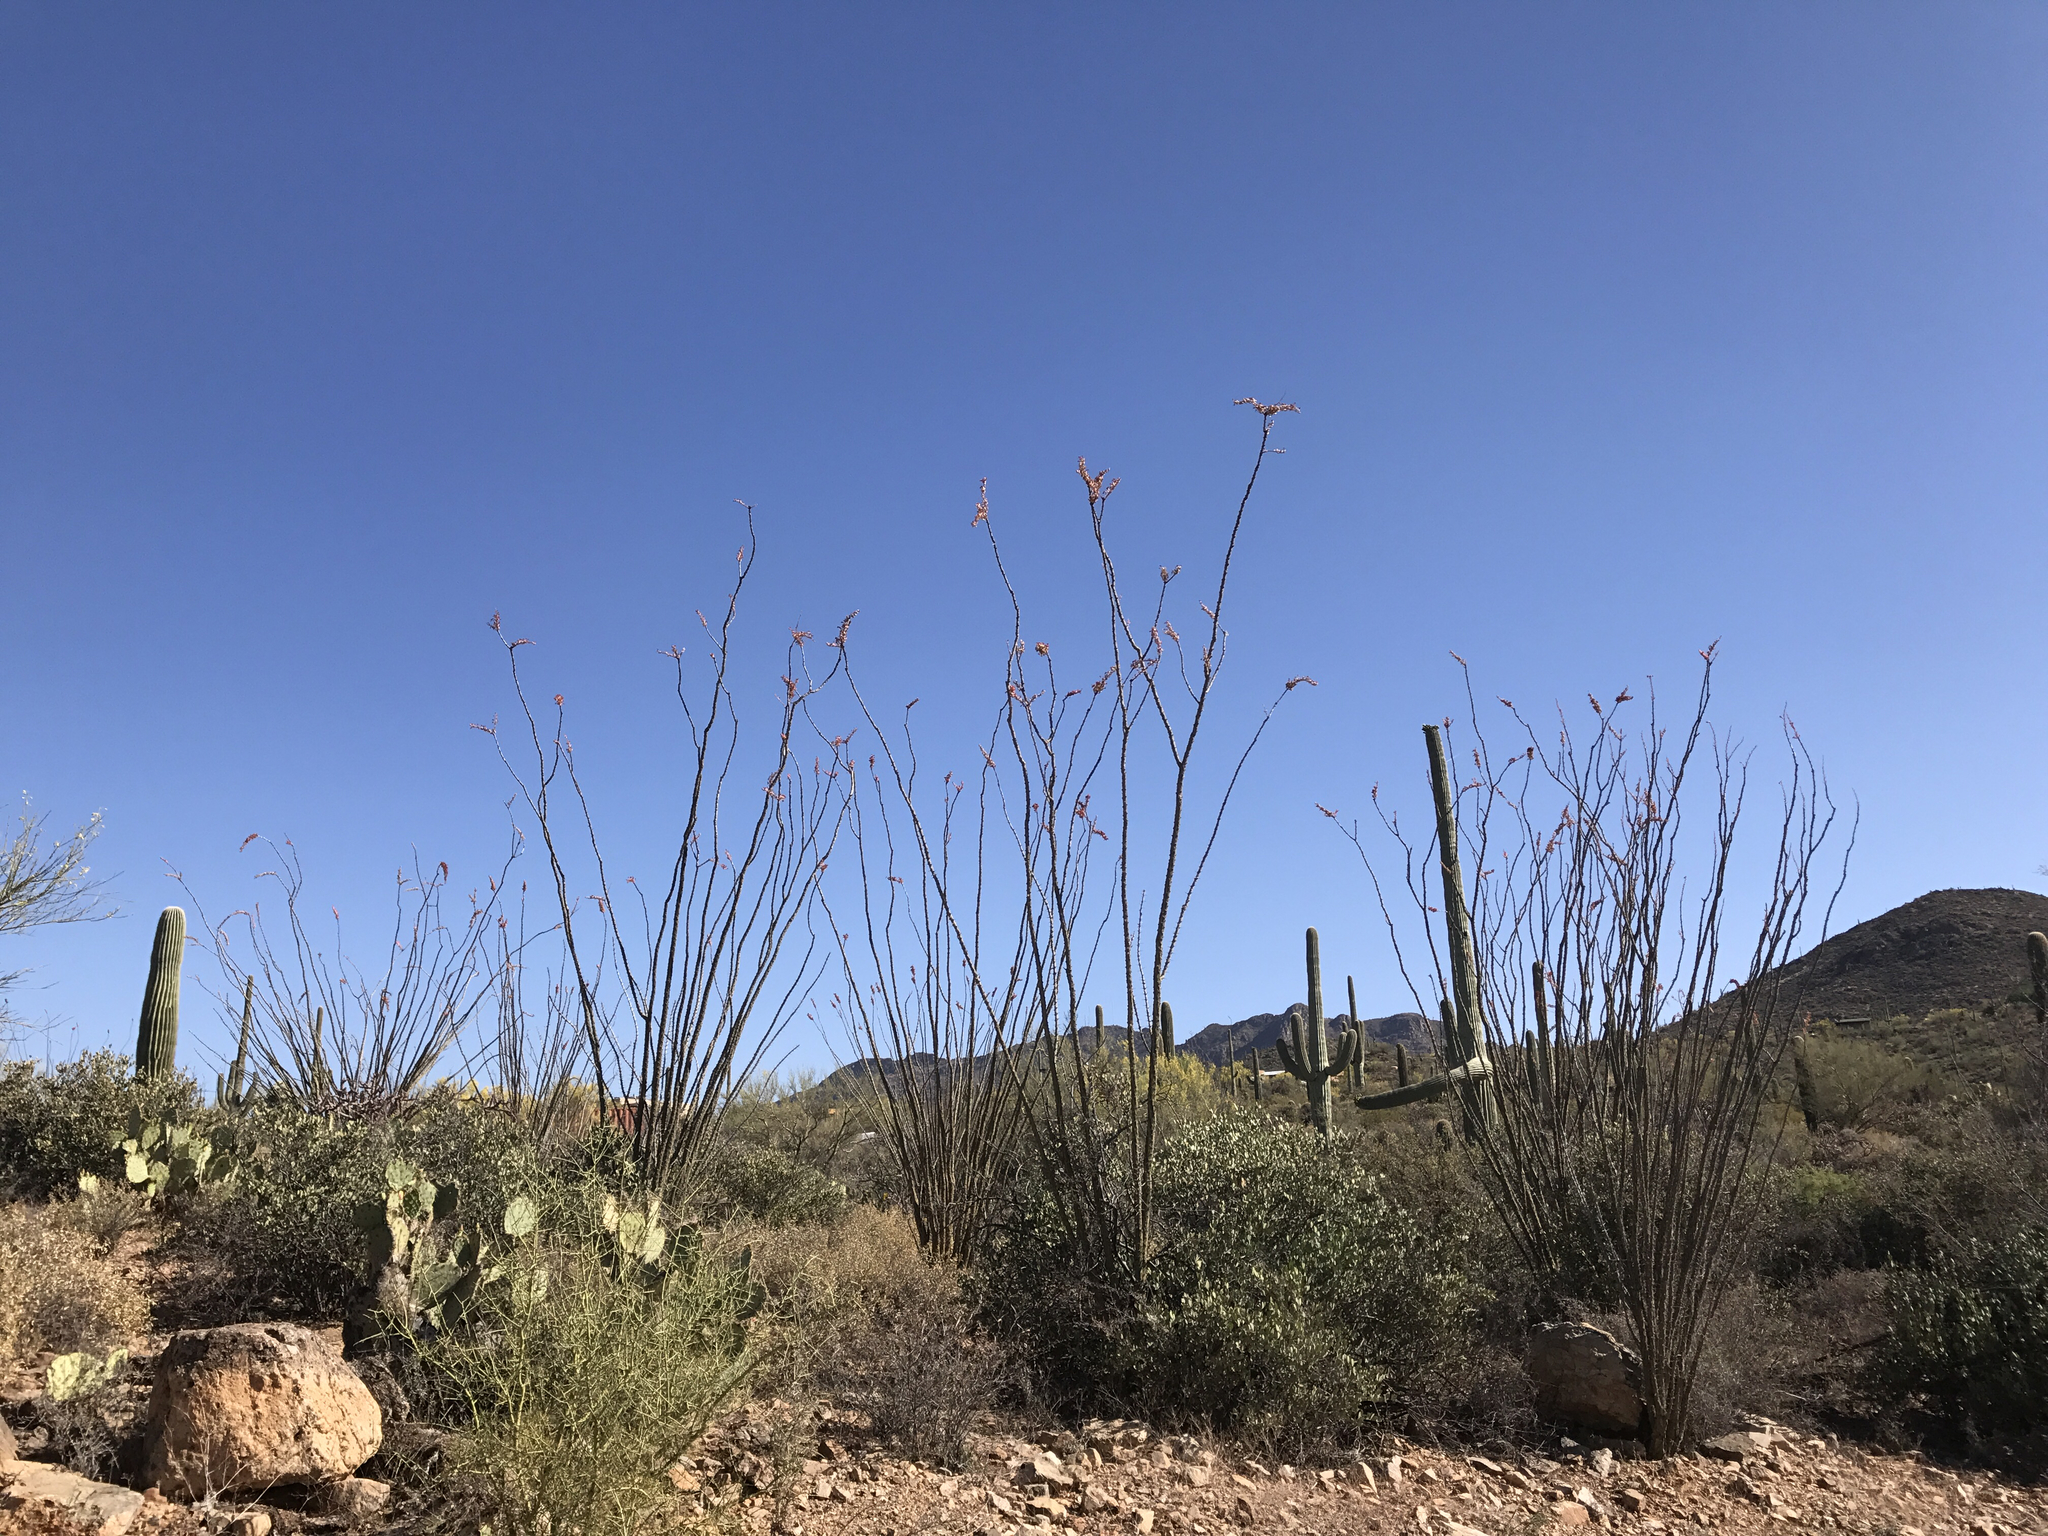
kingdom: Plantae
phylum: Tracheophyta
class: Magnoliopsida
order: Ericales
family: Fouquieriaceae
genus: Fouquieria
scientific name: Fouquieria splendens
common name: Vine-cactus
